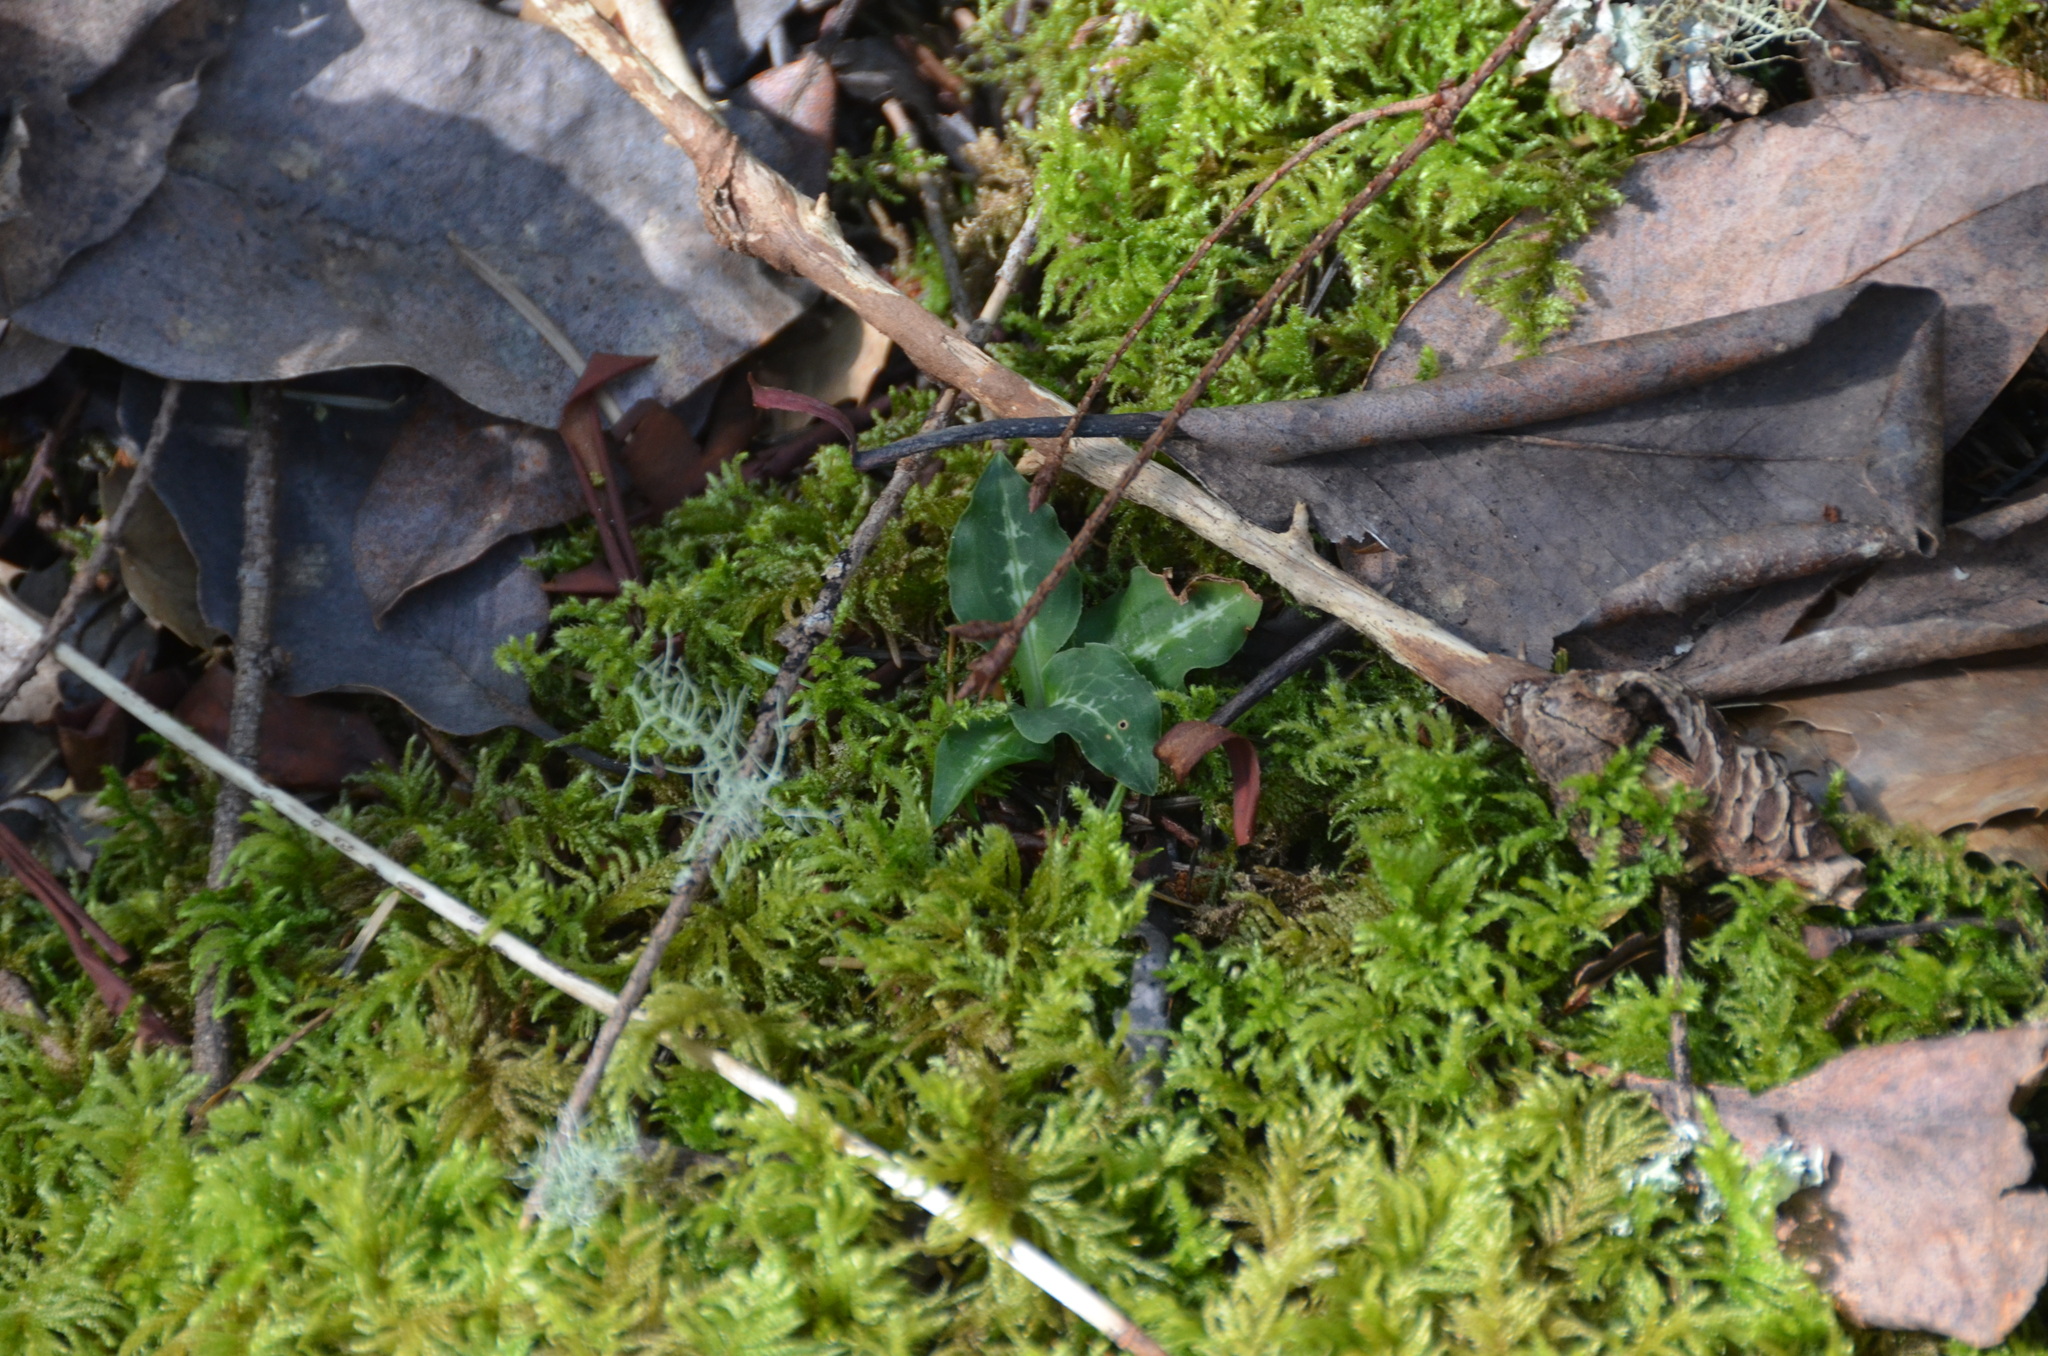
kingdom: Plantae
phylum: Tracheophyta
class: Liliopsida
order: Asparagales
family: Orchidaceae
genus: Goodyera
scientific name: Goodyera oblongifolia
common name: Giant rattlesnake-plantain
